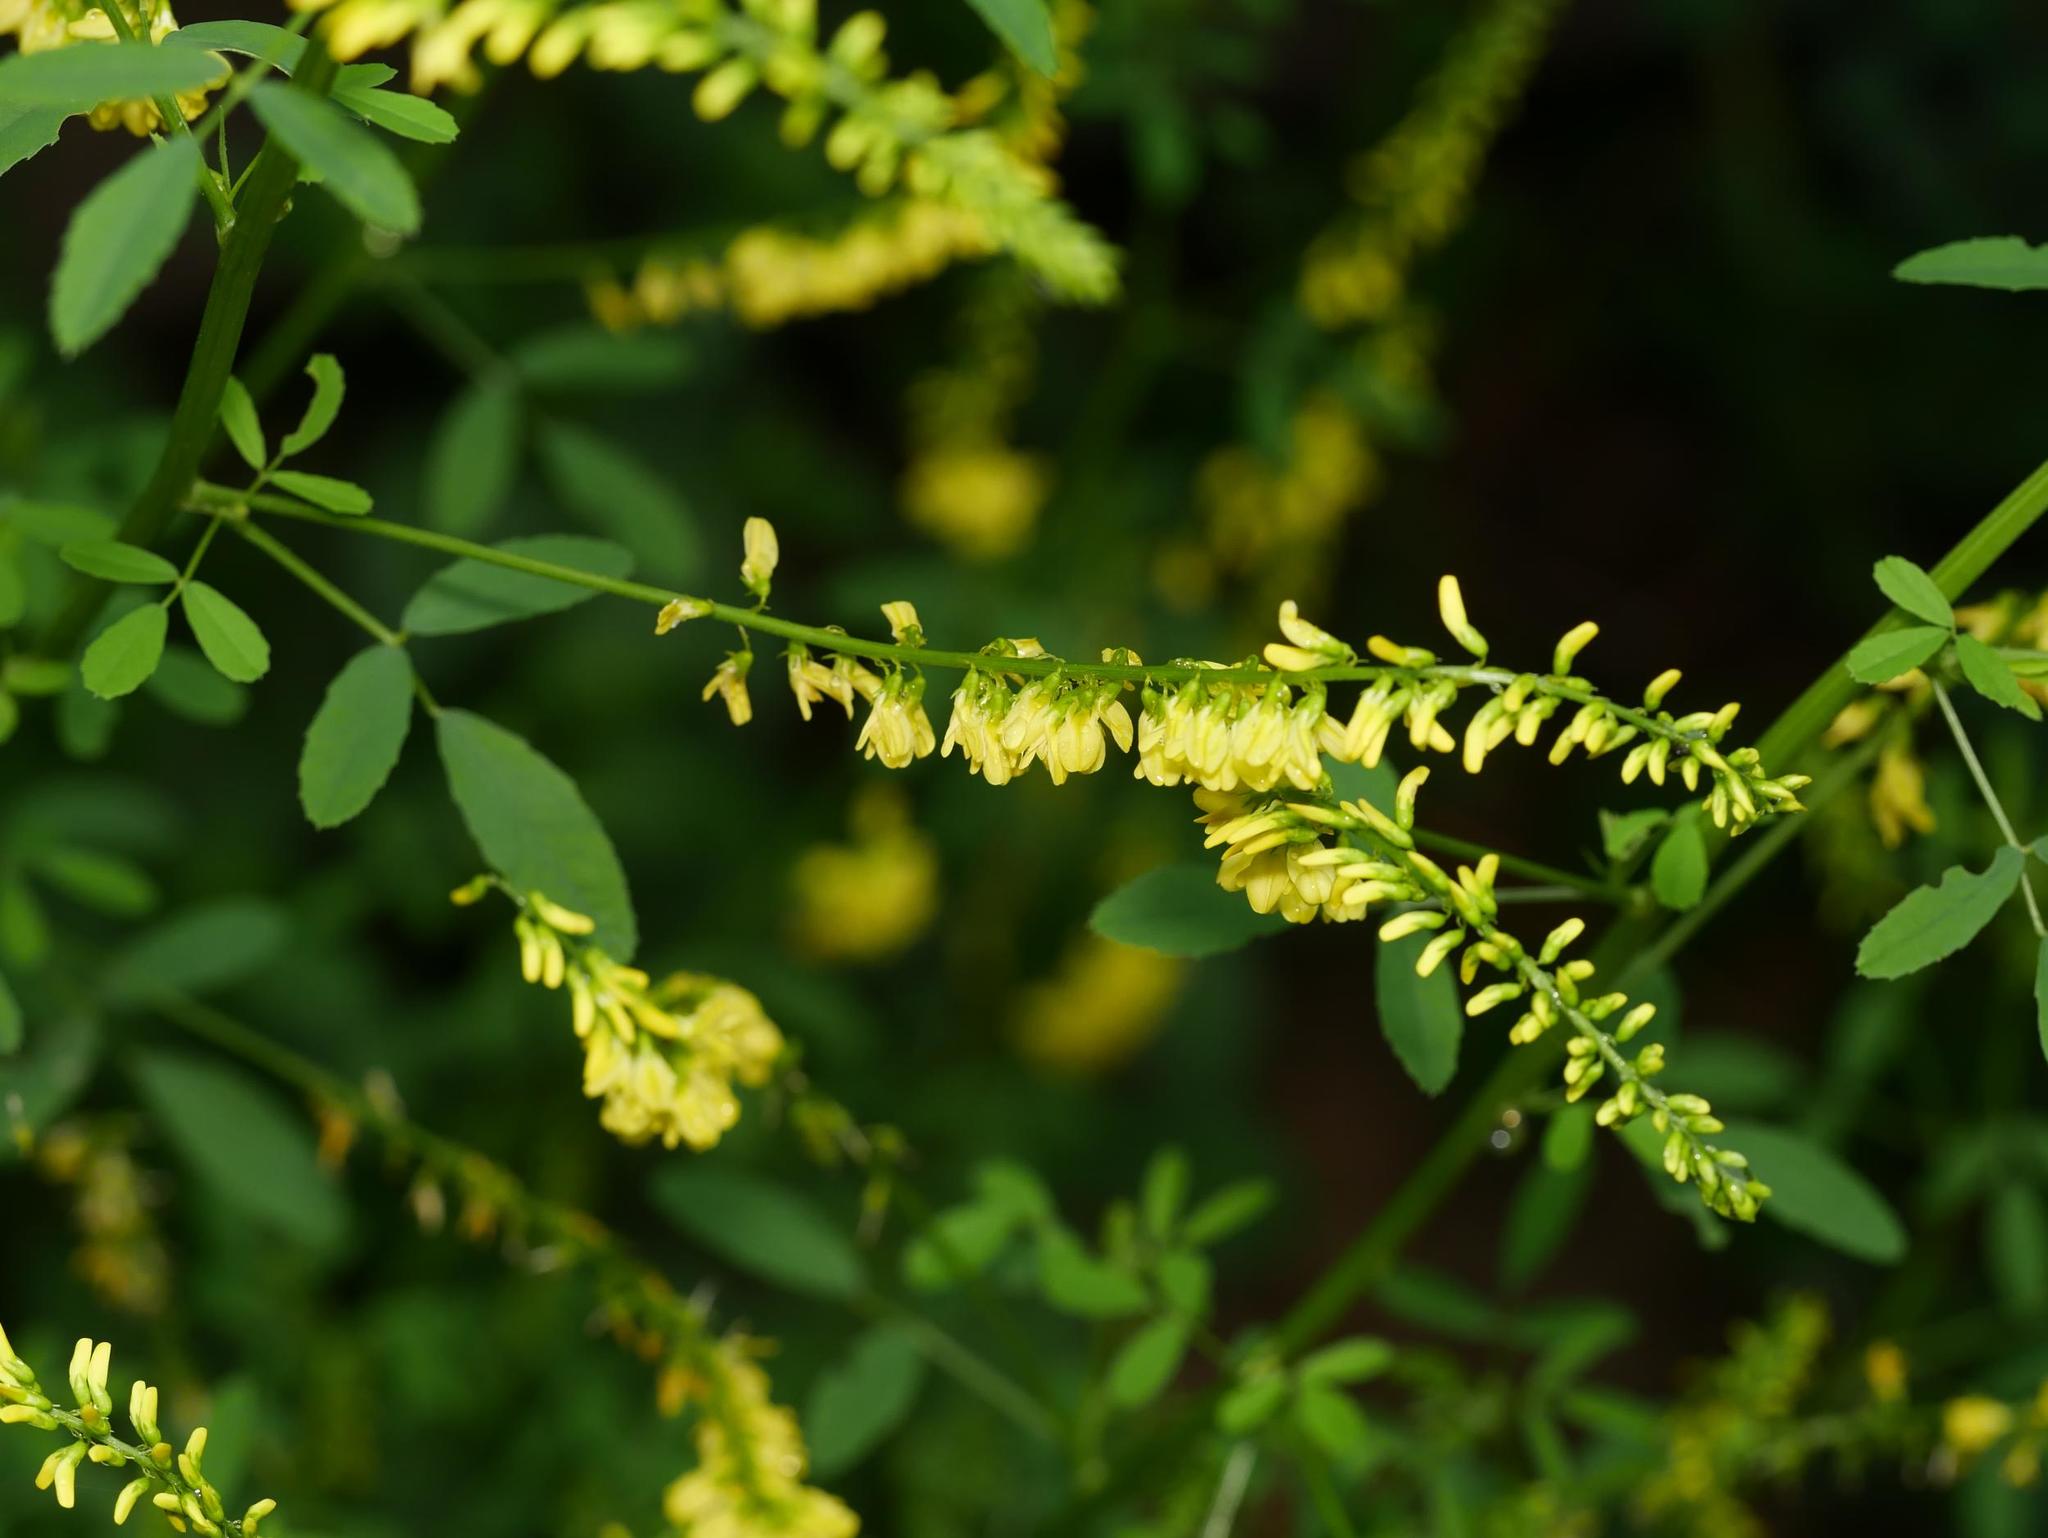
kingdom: Plantae
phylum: Tracheophyta
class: Magnoliopsida
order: Fabales
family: Fabaceae
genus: Melilotus
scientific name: Melilotus officinalis
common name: Sweetclover
